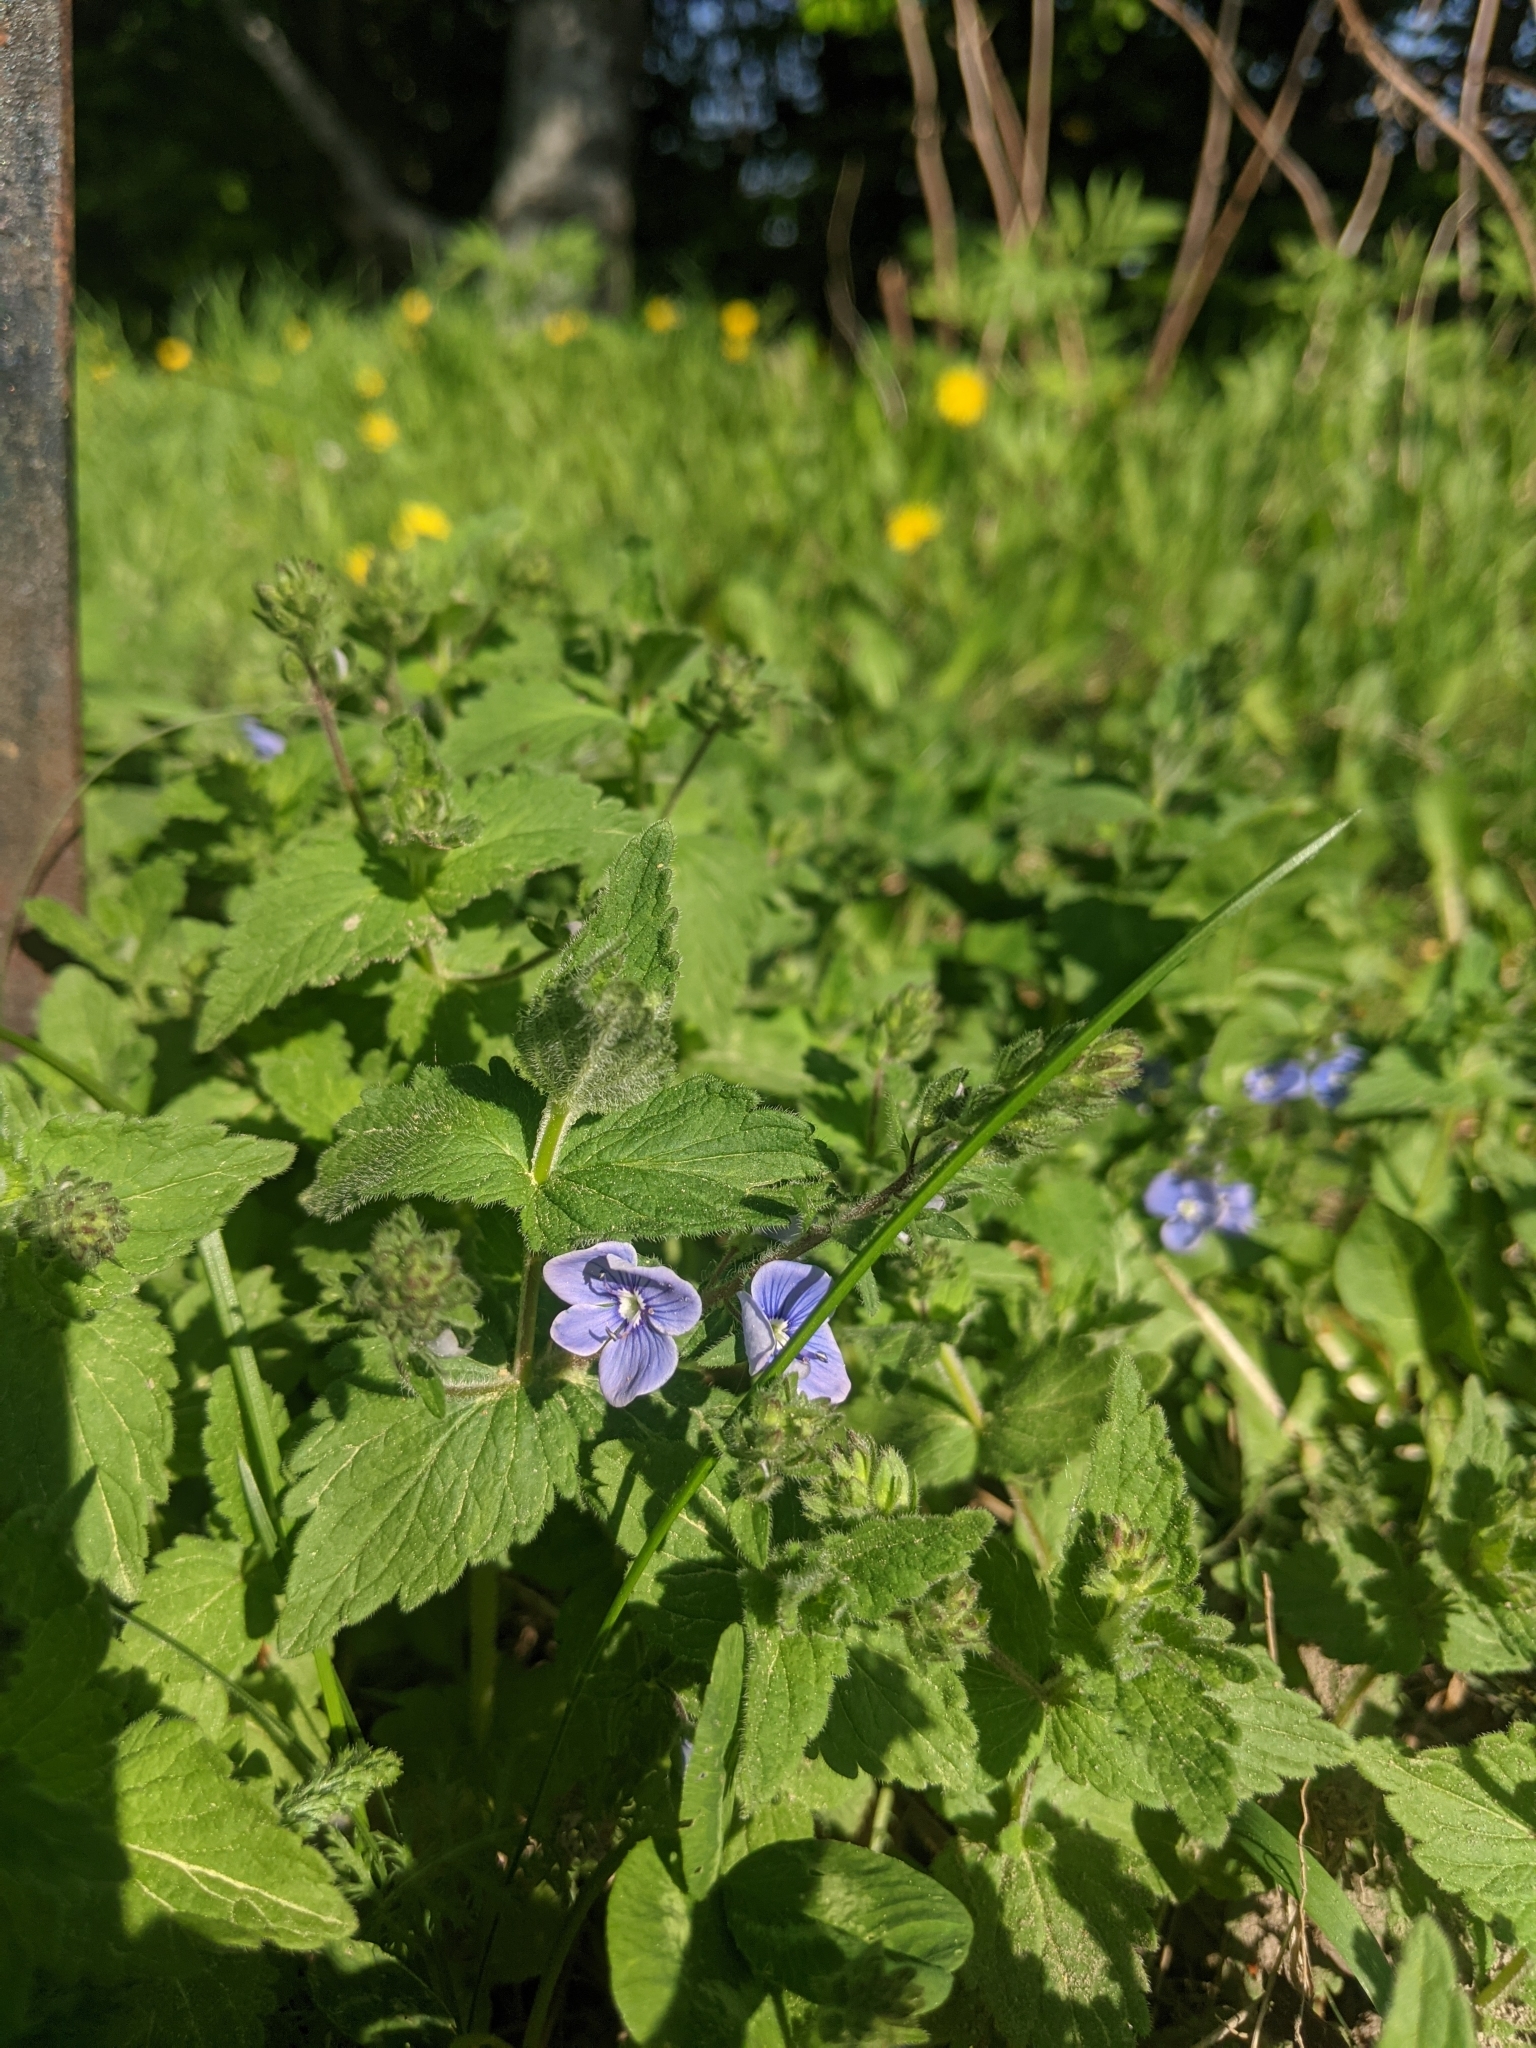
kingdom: Plantae
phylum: Tracheophyta
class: Magnoliopsida
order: Lamiales
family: Plantaginaceae
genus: Veronica
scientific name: Veronica chamaedrys
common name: Germander speedwell
